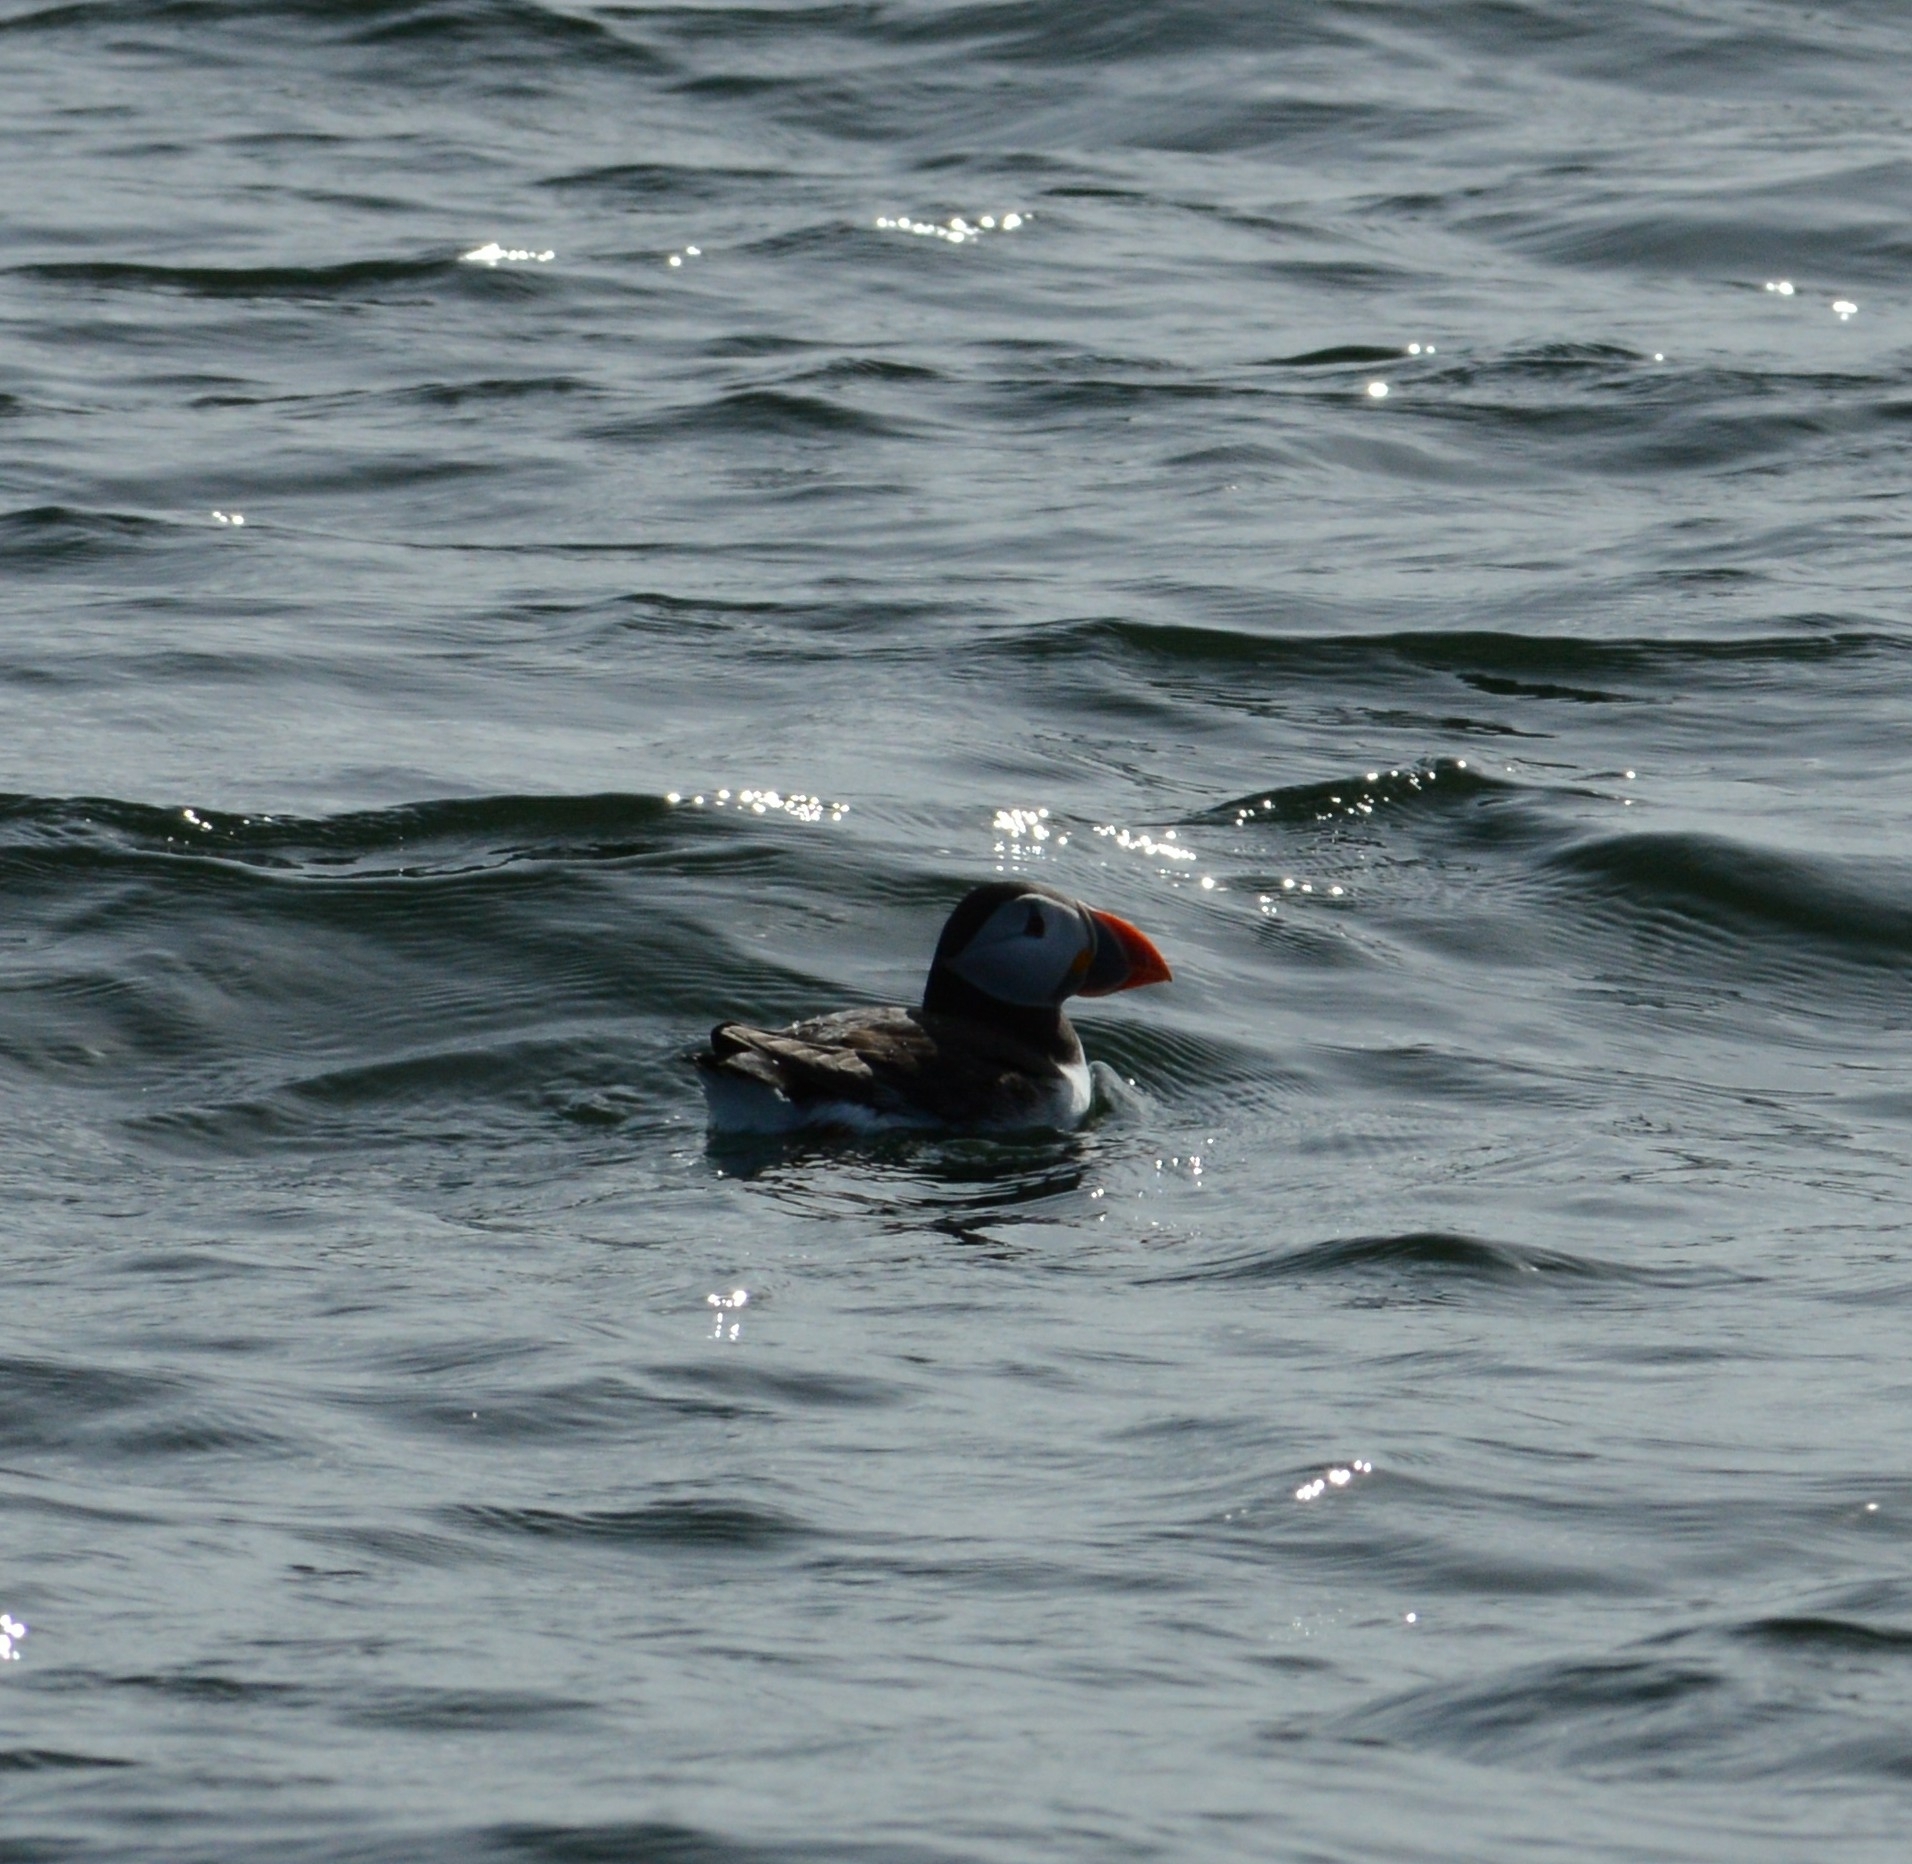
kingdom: Animalia
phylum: Chordata
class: Aves
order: Charadriiformes
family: Alcidae
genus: Fratercula
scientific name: Fratercula arctica
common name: Atlantic puffin
